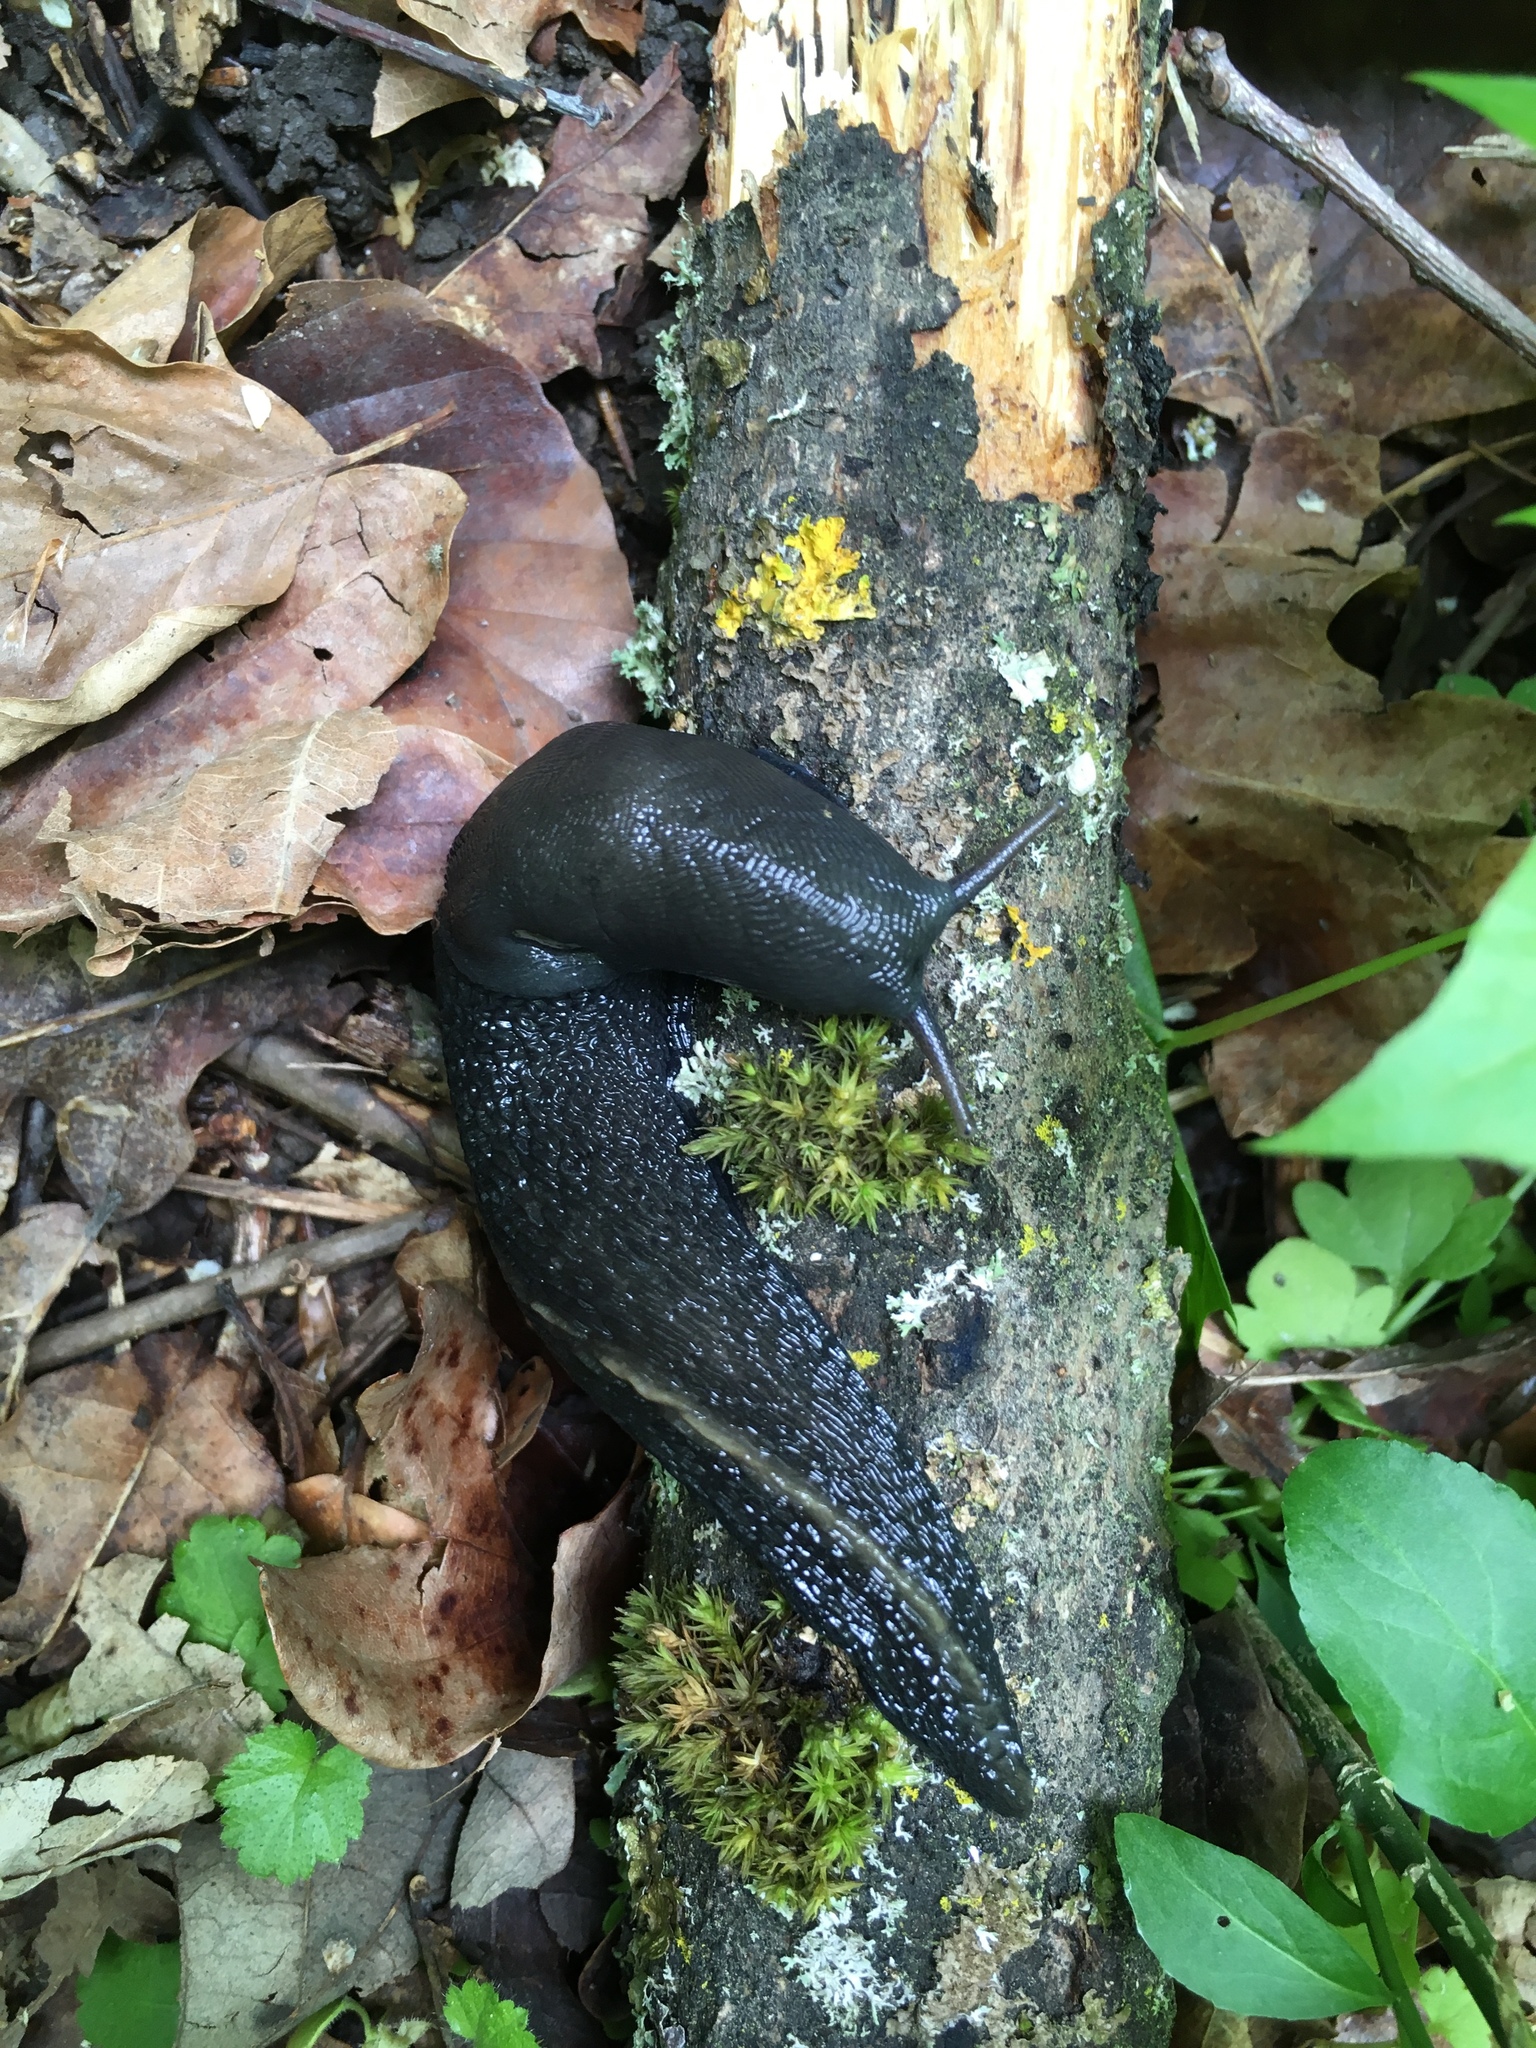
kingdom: Animalia
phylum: Mollusca
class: Gastropoda
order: Stylommatophora
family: Limacidae
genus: Limax
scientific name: Limax cinereoniger
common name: Ash-black slug
